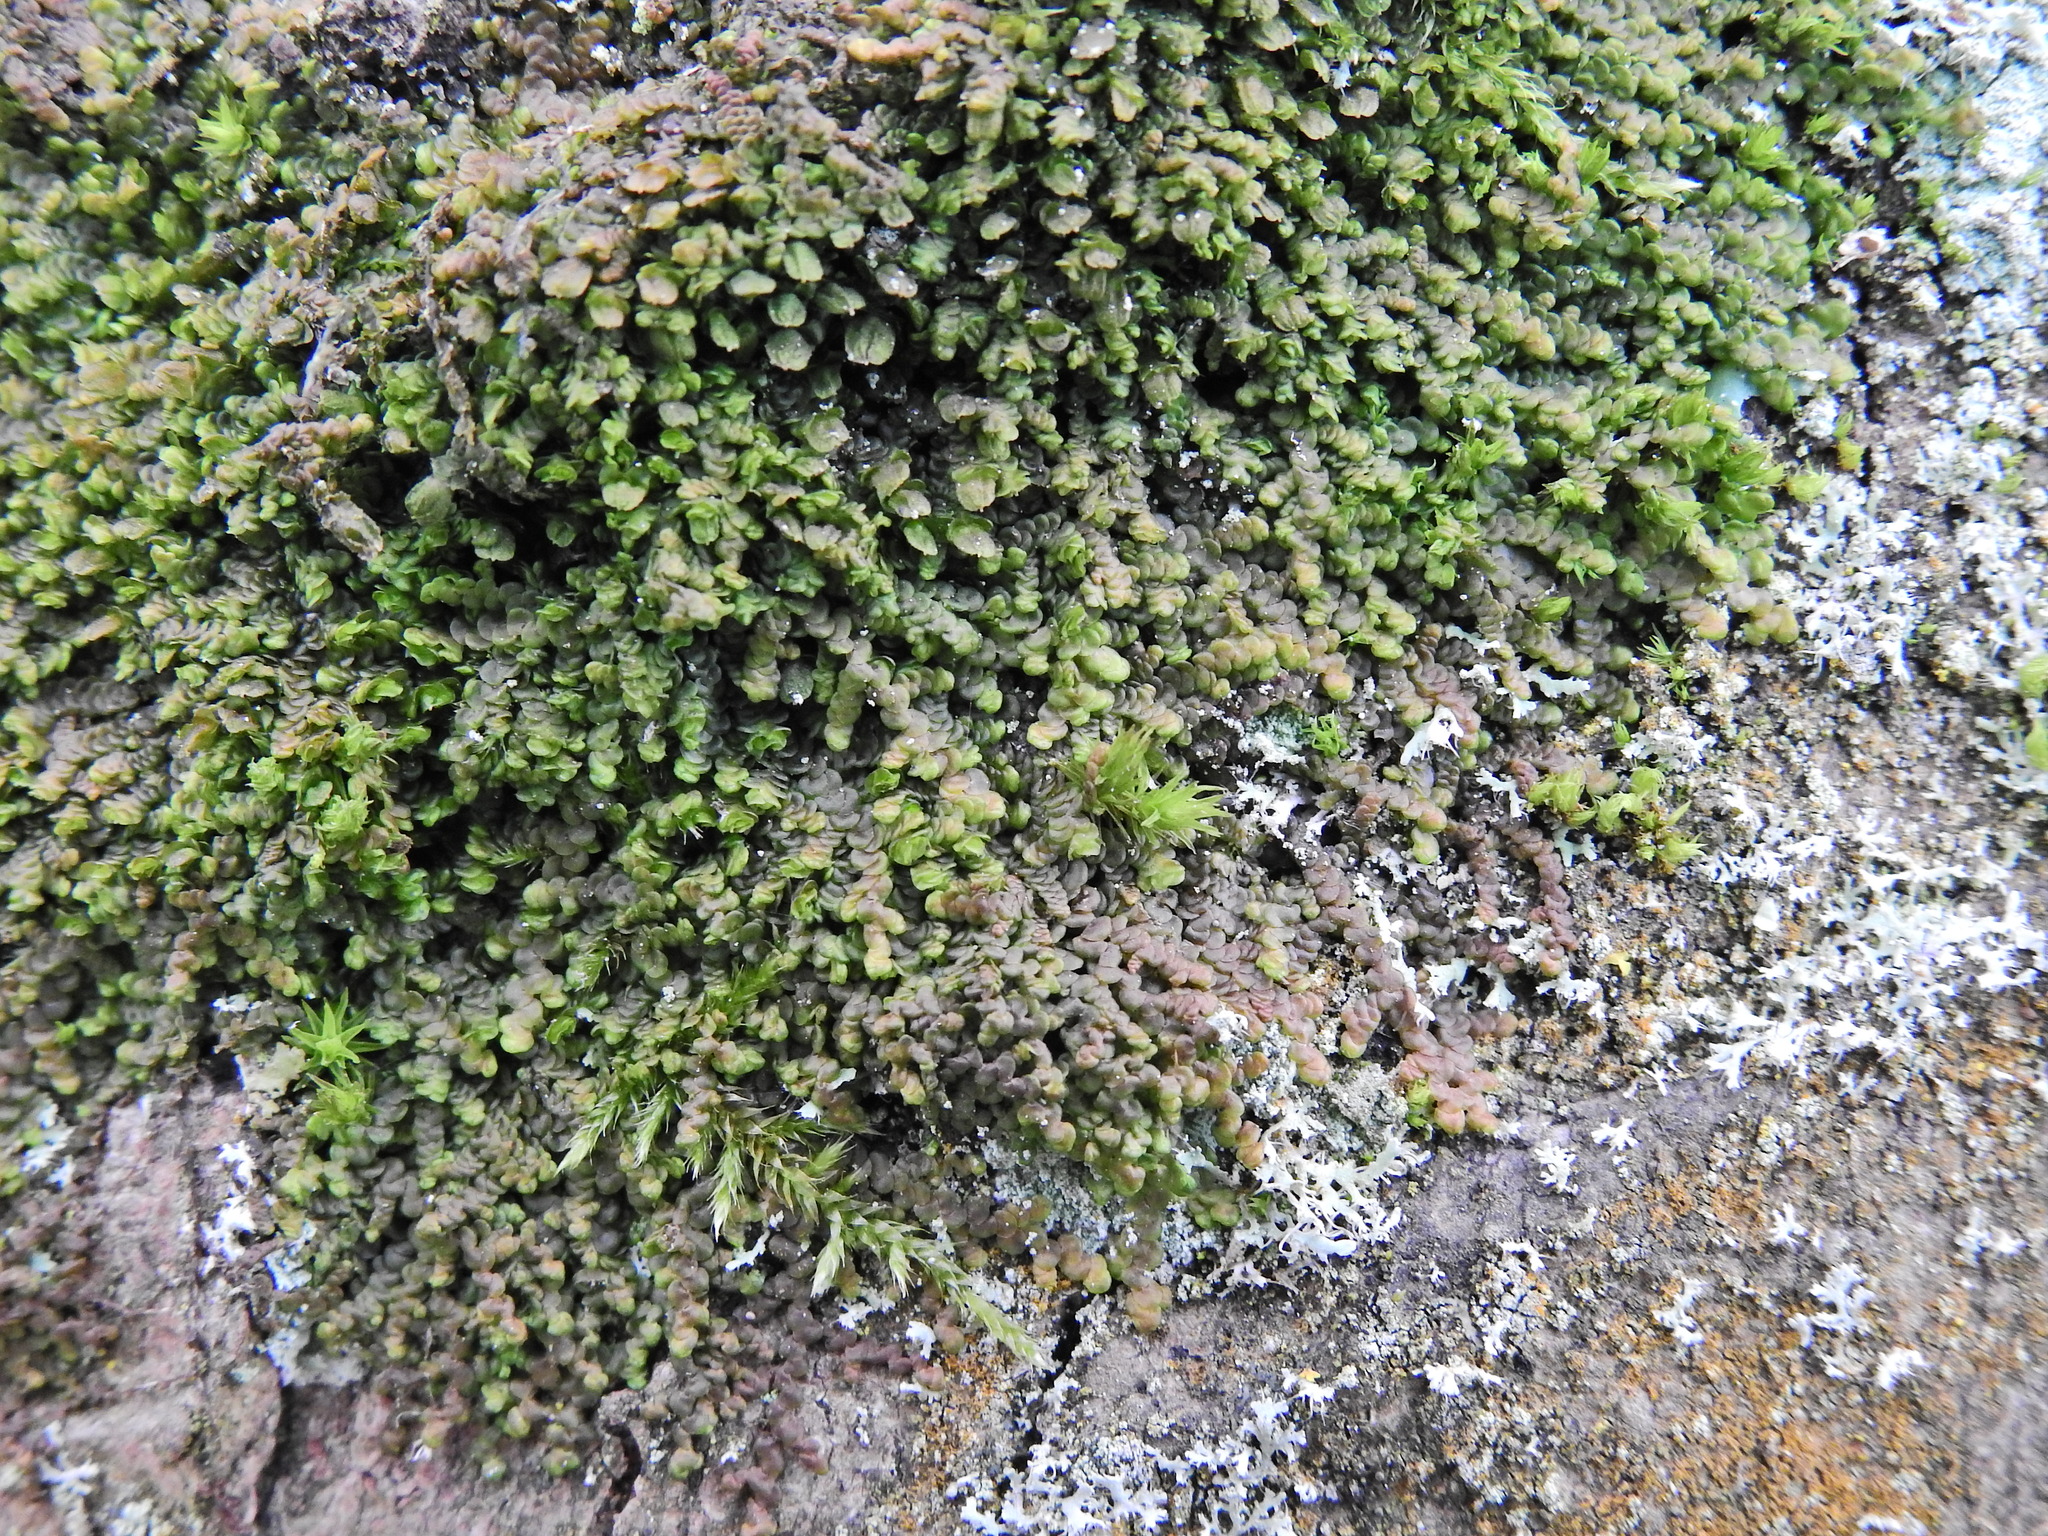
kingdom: Plantae
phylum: Marchantiophyta
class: Jungermanniopsida
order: Porellales
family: Frullaniaceae
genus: Frullania
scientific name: Frullania dilatata
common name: Dilated scalewort
